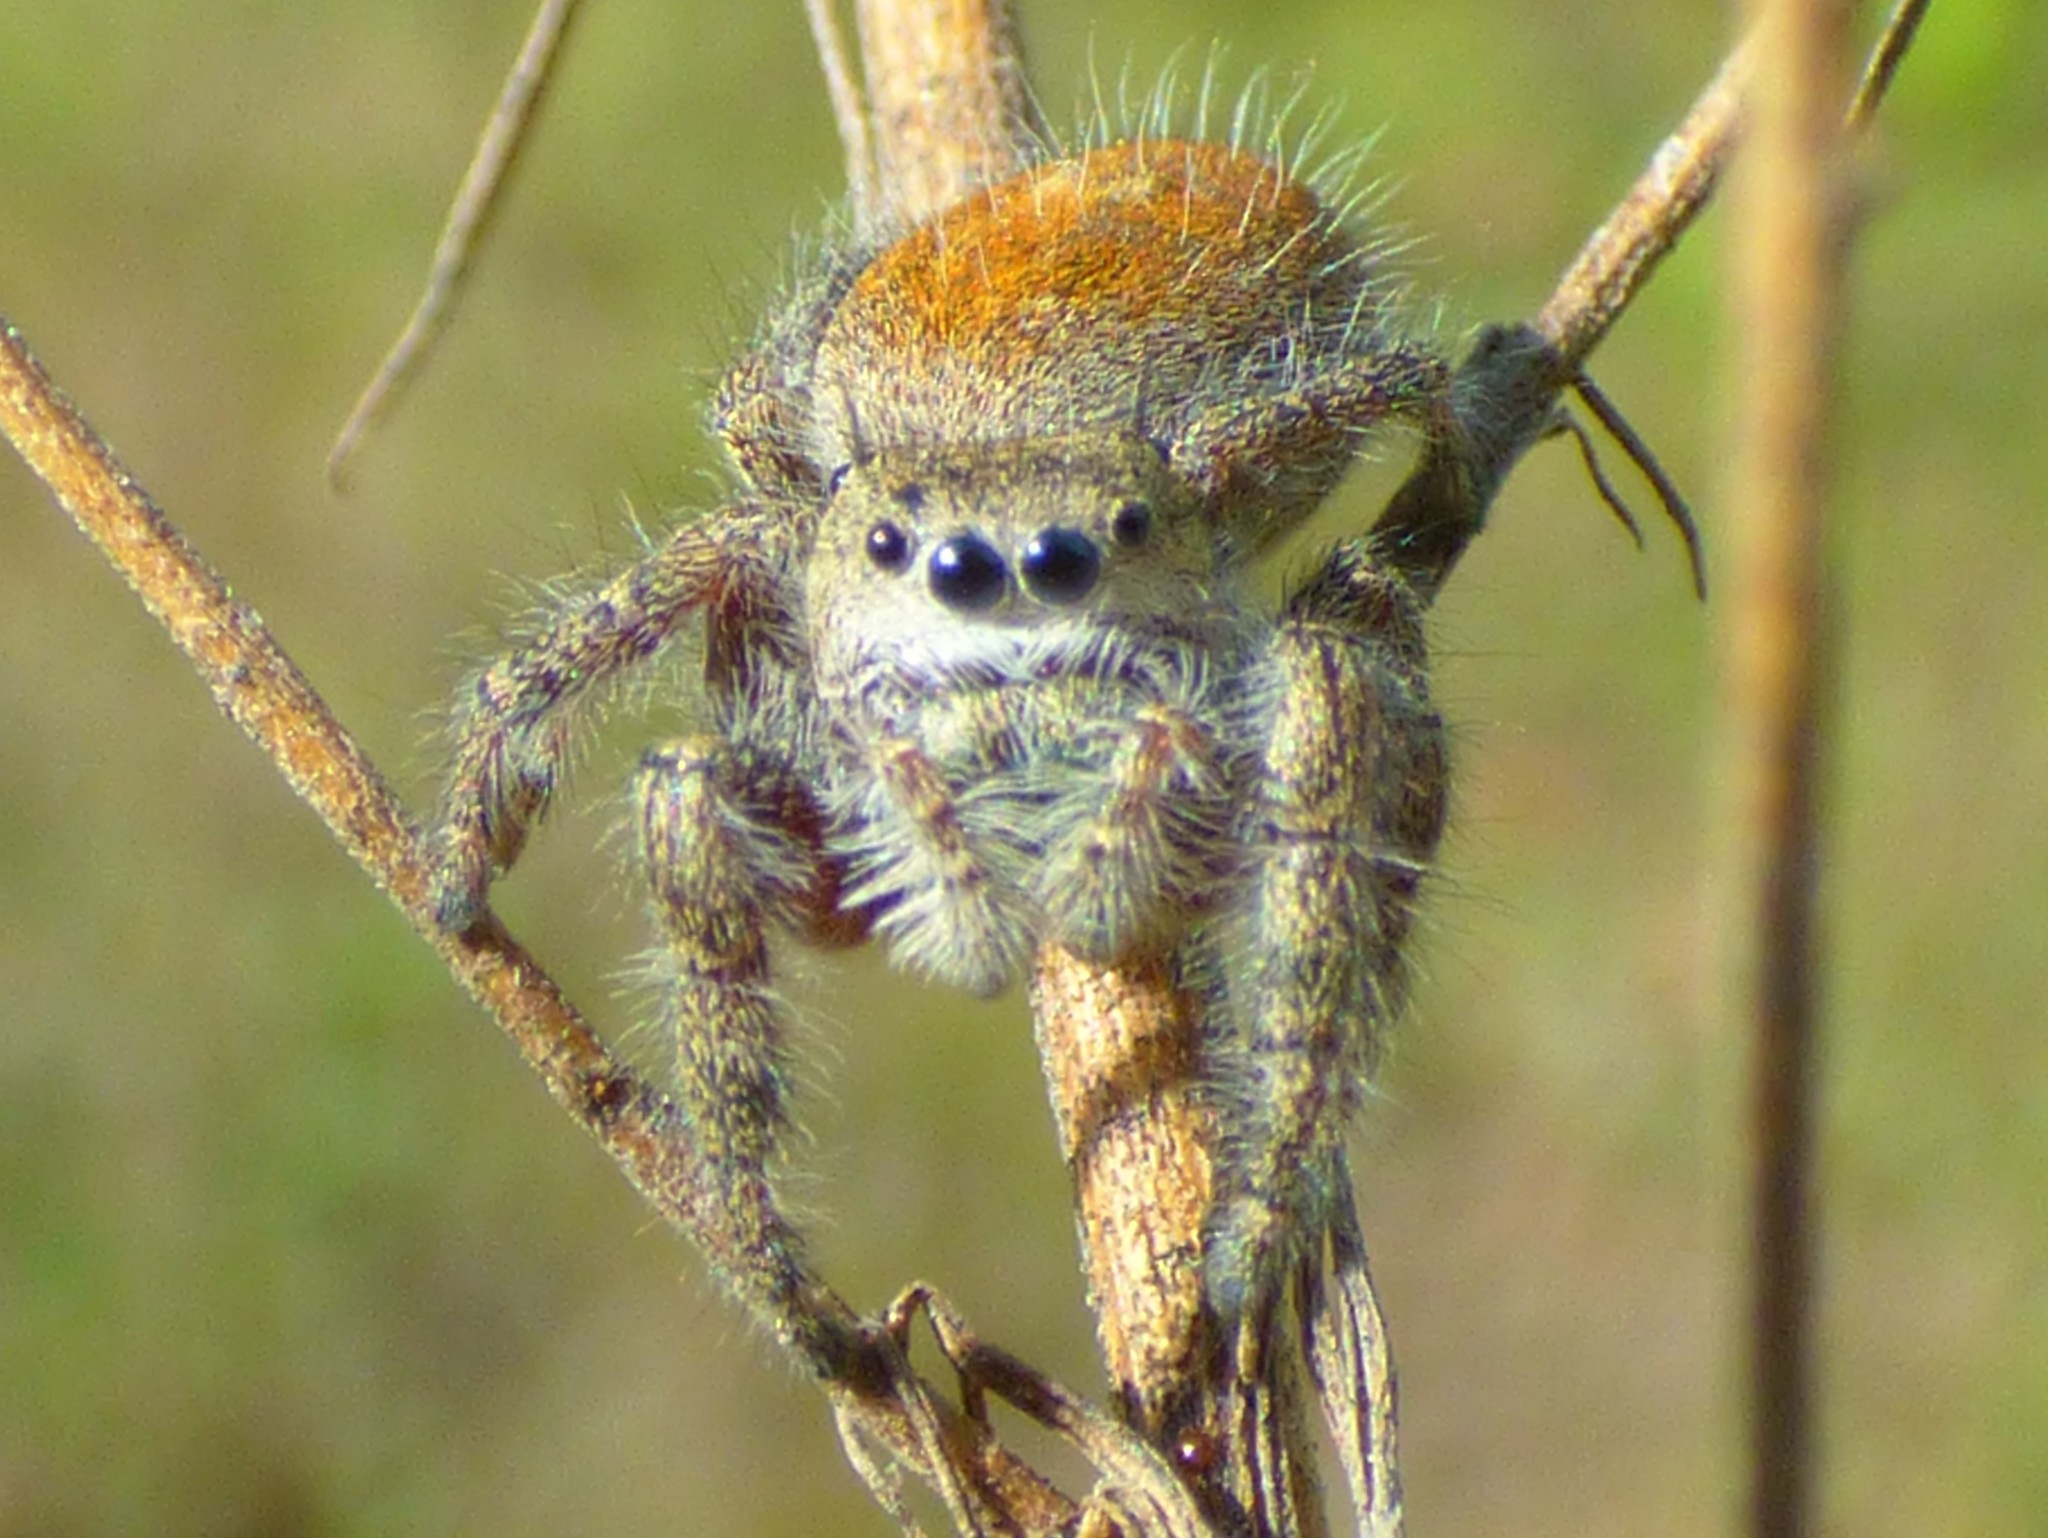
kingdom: Animalia
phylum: Arthropoda
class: Arachnida
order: Araneae
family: Salticidae
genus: Phidippus
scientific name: Phidippus princeps
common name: Grayish jumping spider
